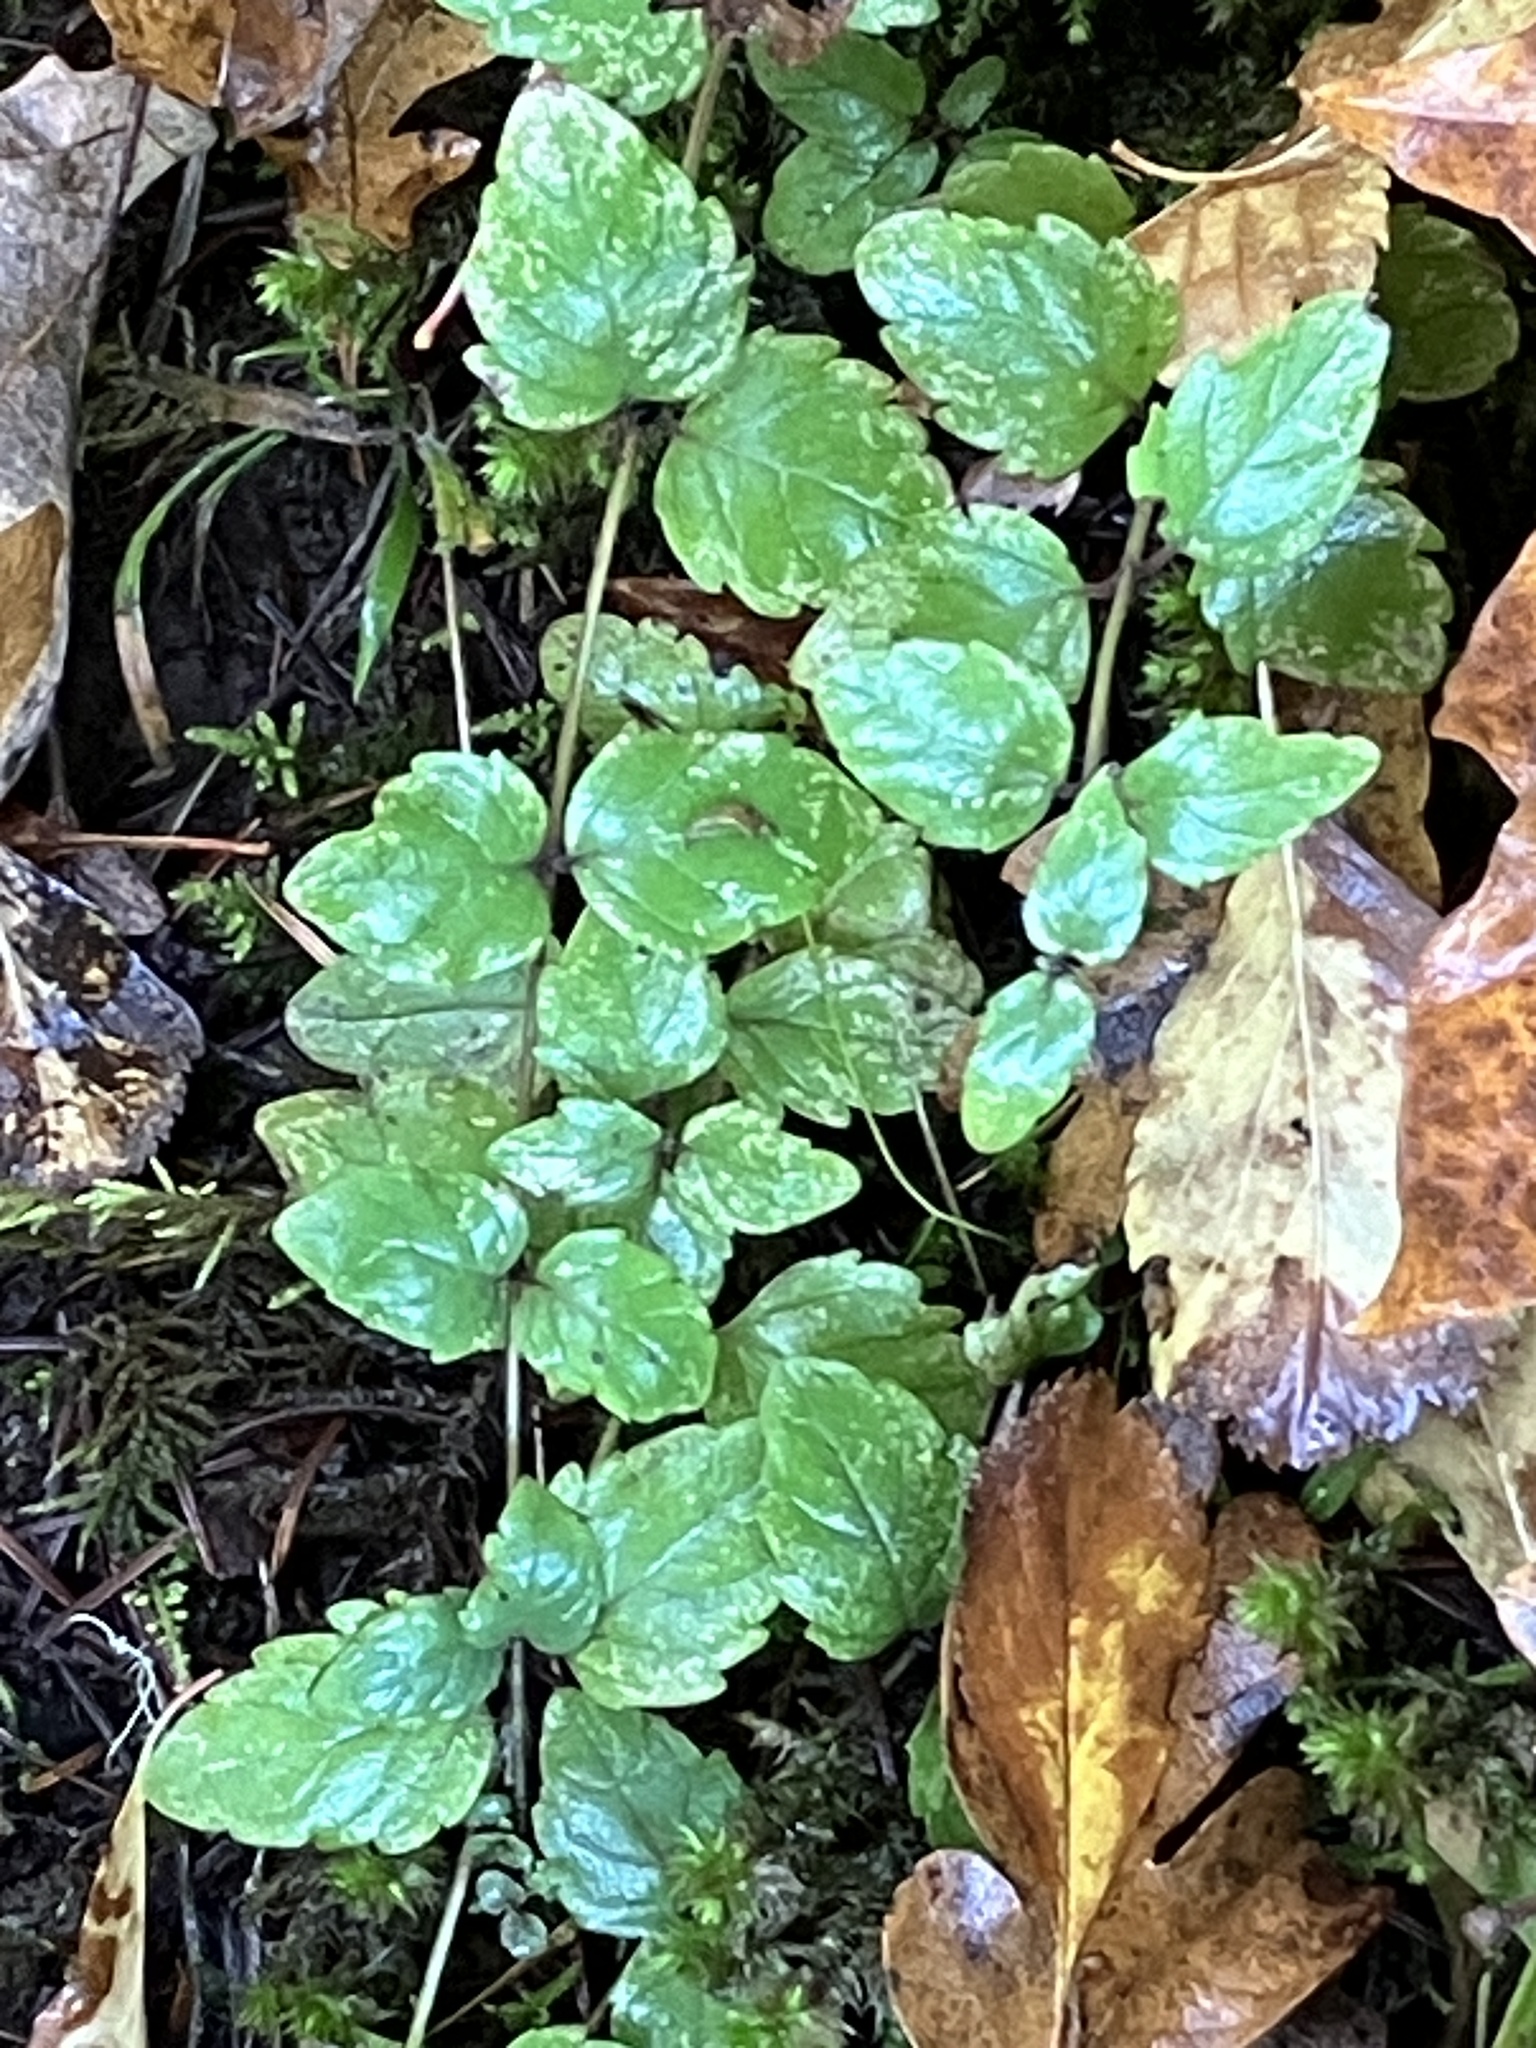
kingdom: Plantae
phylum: Tracheophyta
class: Magnoliopsida
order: Lamiales
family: Lamiaceae
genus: Micromeria
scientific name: Micromeria douglasii
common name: Yerba buena
